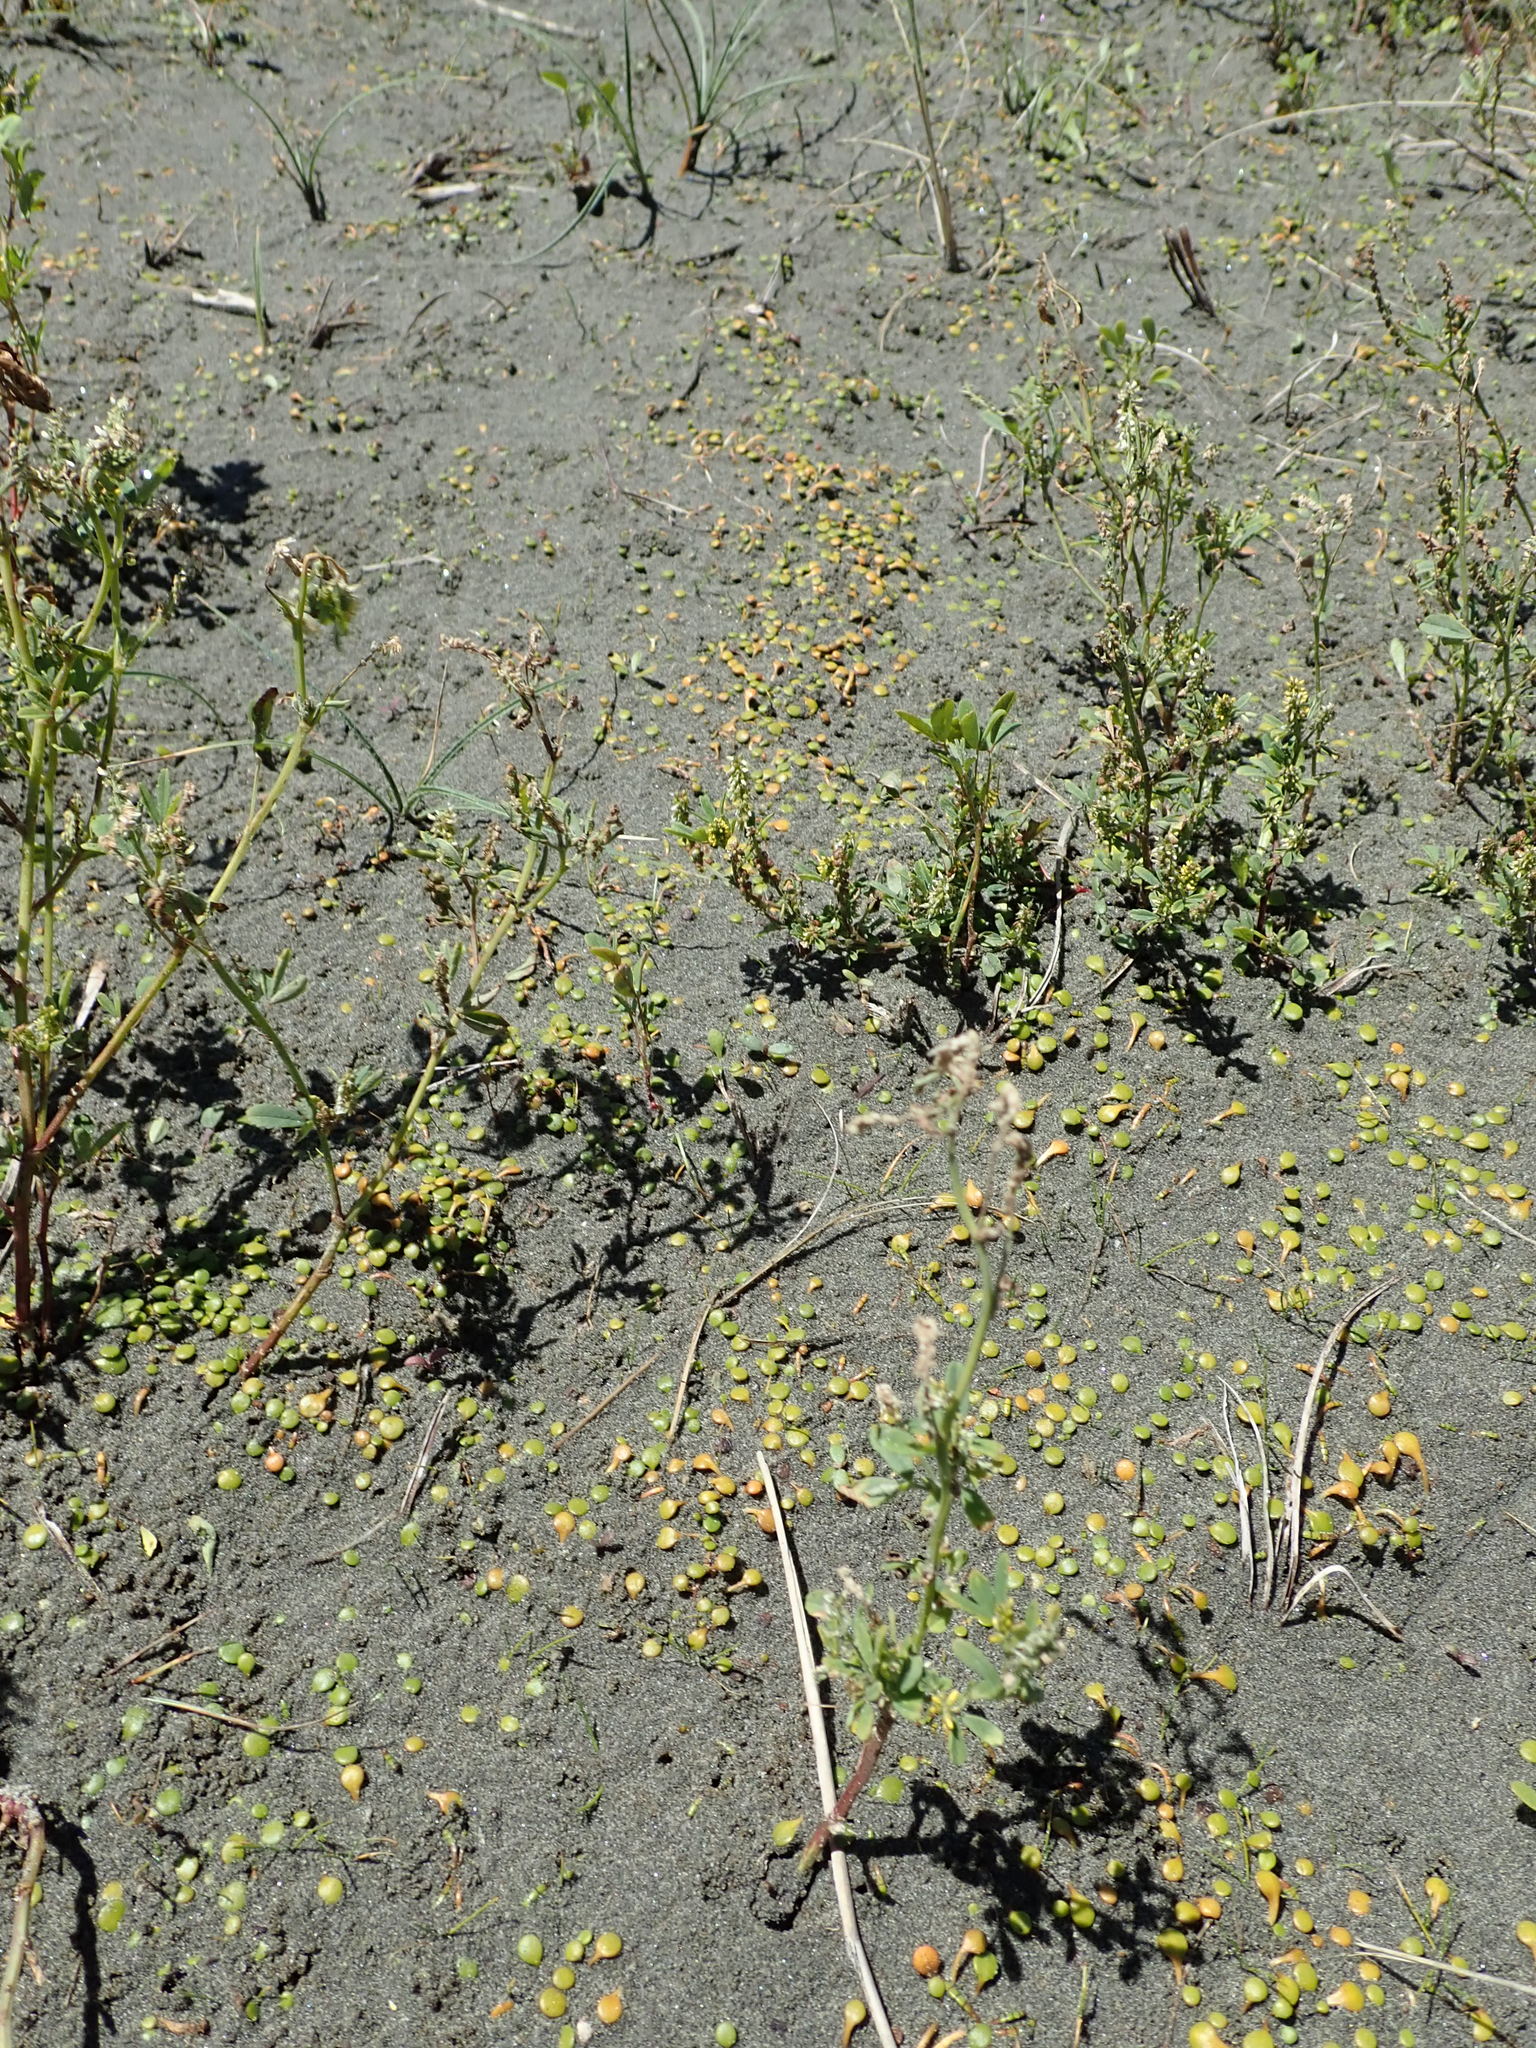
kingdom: Plantae
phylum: Tracheophyta
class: Magnoliopsida
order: Apiales
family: Apiaceae
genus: Lilaeopsis
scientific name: Lilaeopsis novae-zelandiae
